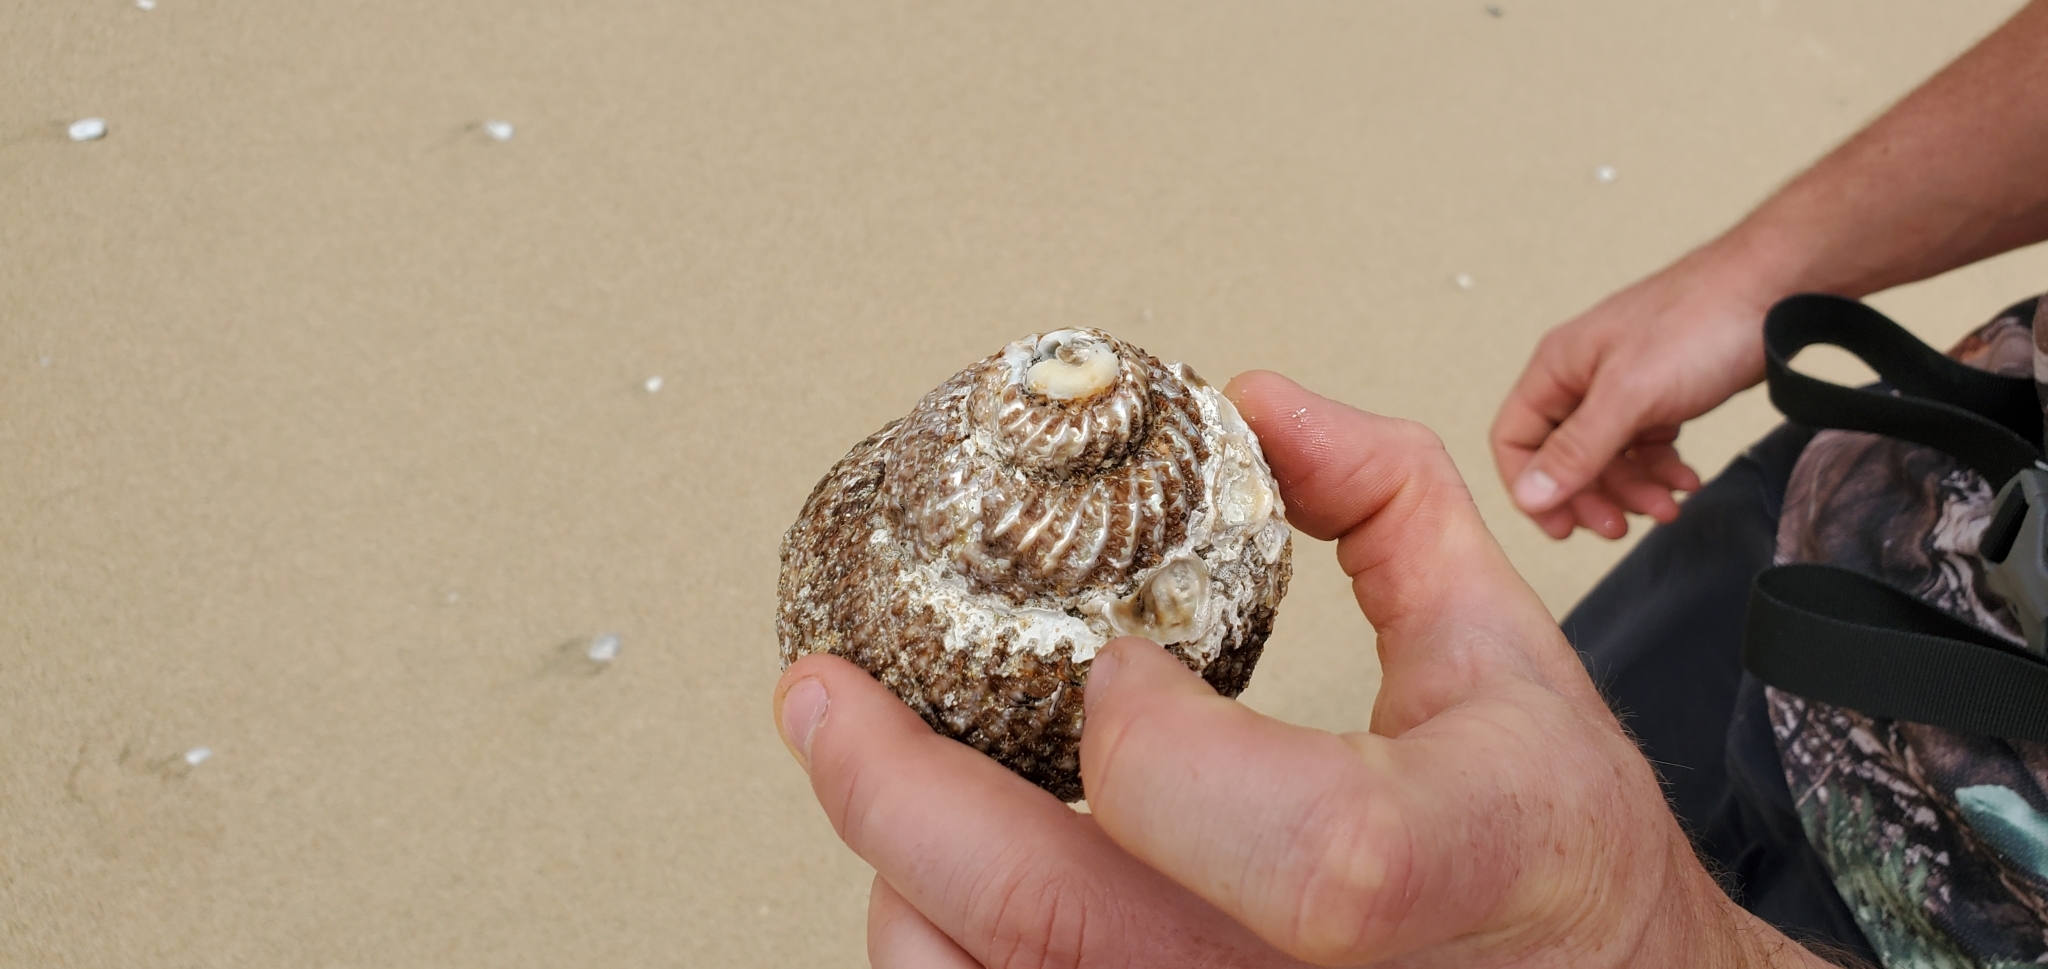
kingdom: Animalia
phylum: Mollusca
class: Gastropoda
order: Trochida
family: Turbinidae
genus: Cookia
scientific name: Cookia sulcata
